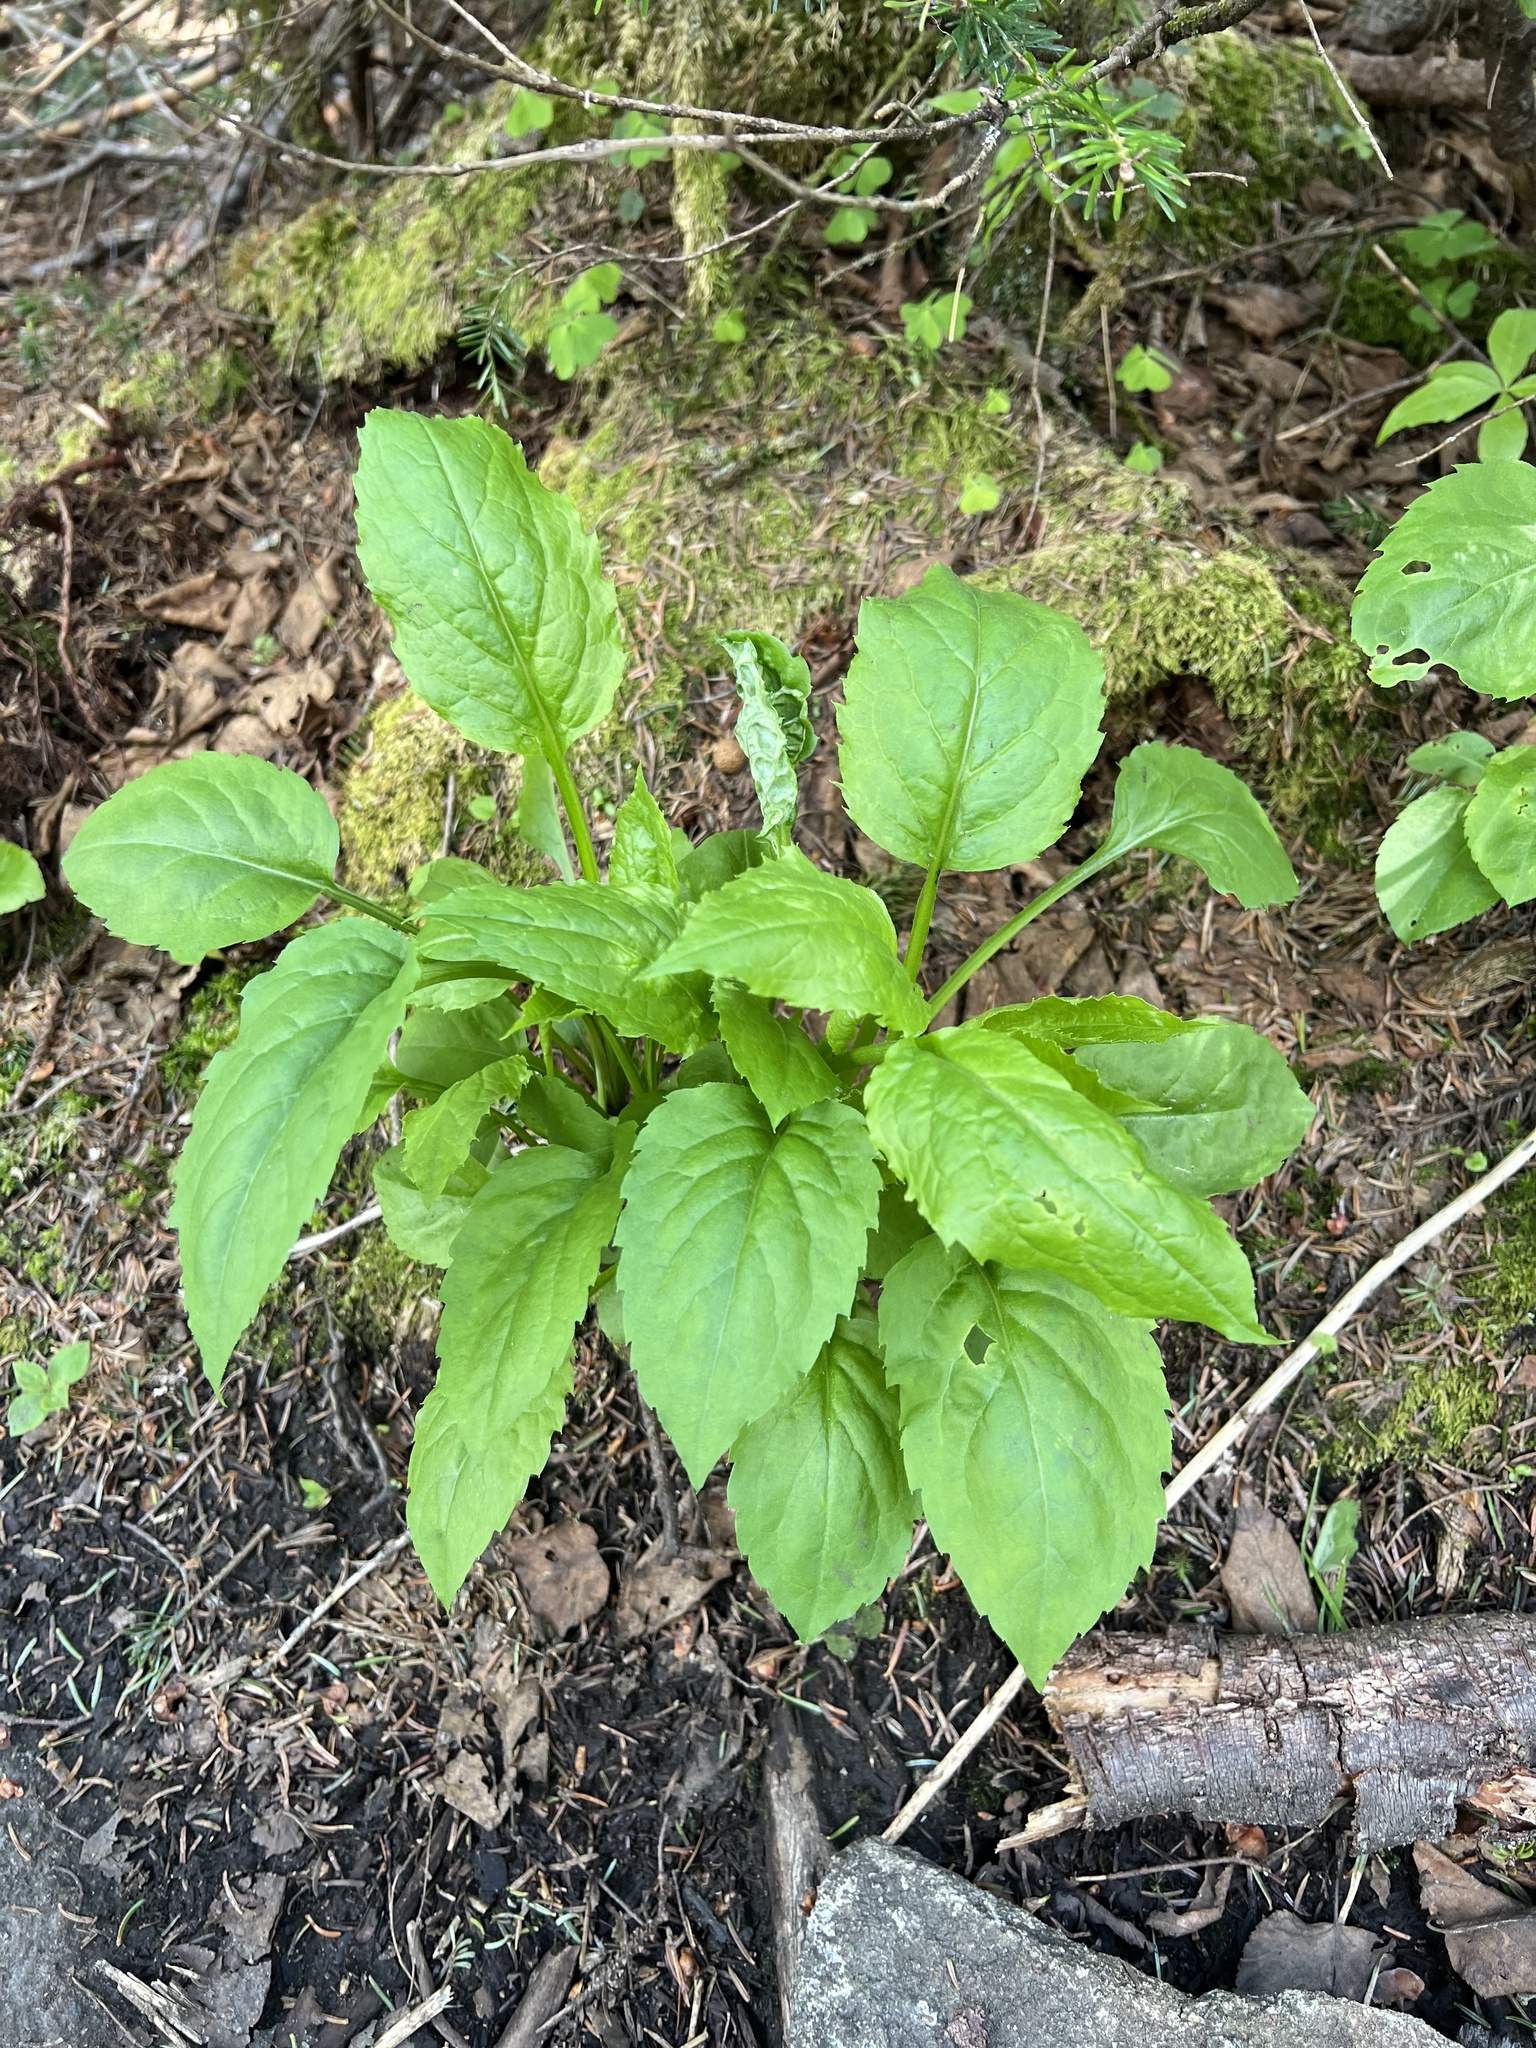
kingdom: Plantae
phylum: Tracheophyta
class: Magnoliopsida
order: Asterales
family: Asteraceae
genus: Solidago
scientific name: Solidago macrophylla
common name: Large-leaved goldenrod
